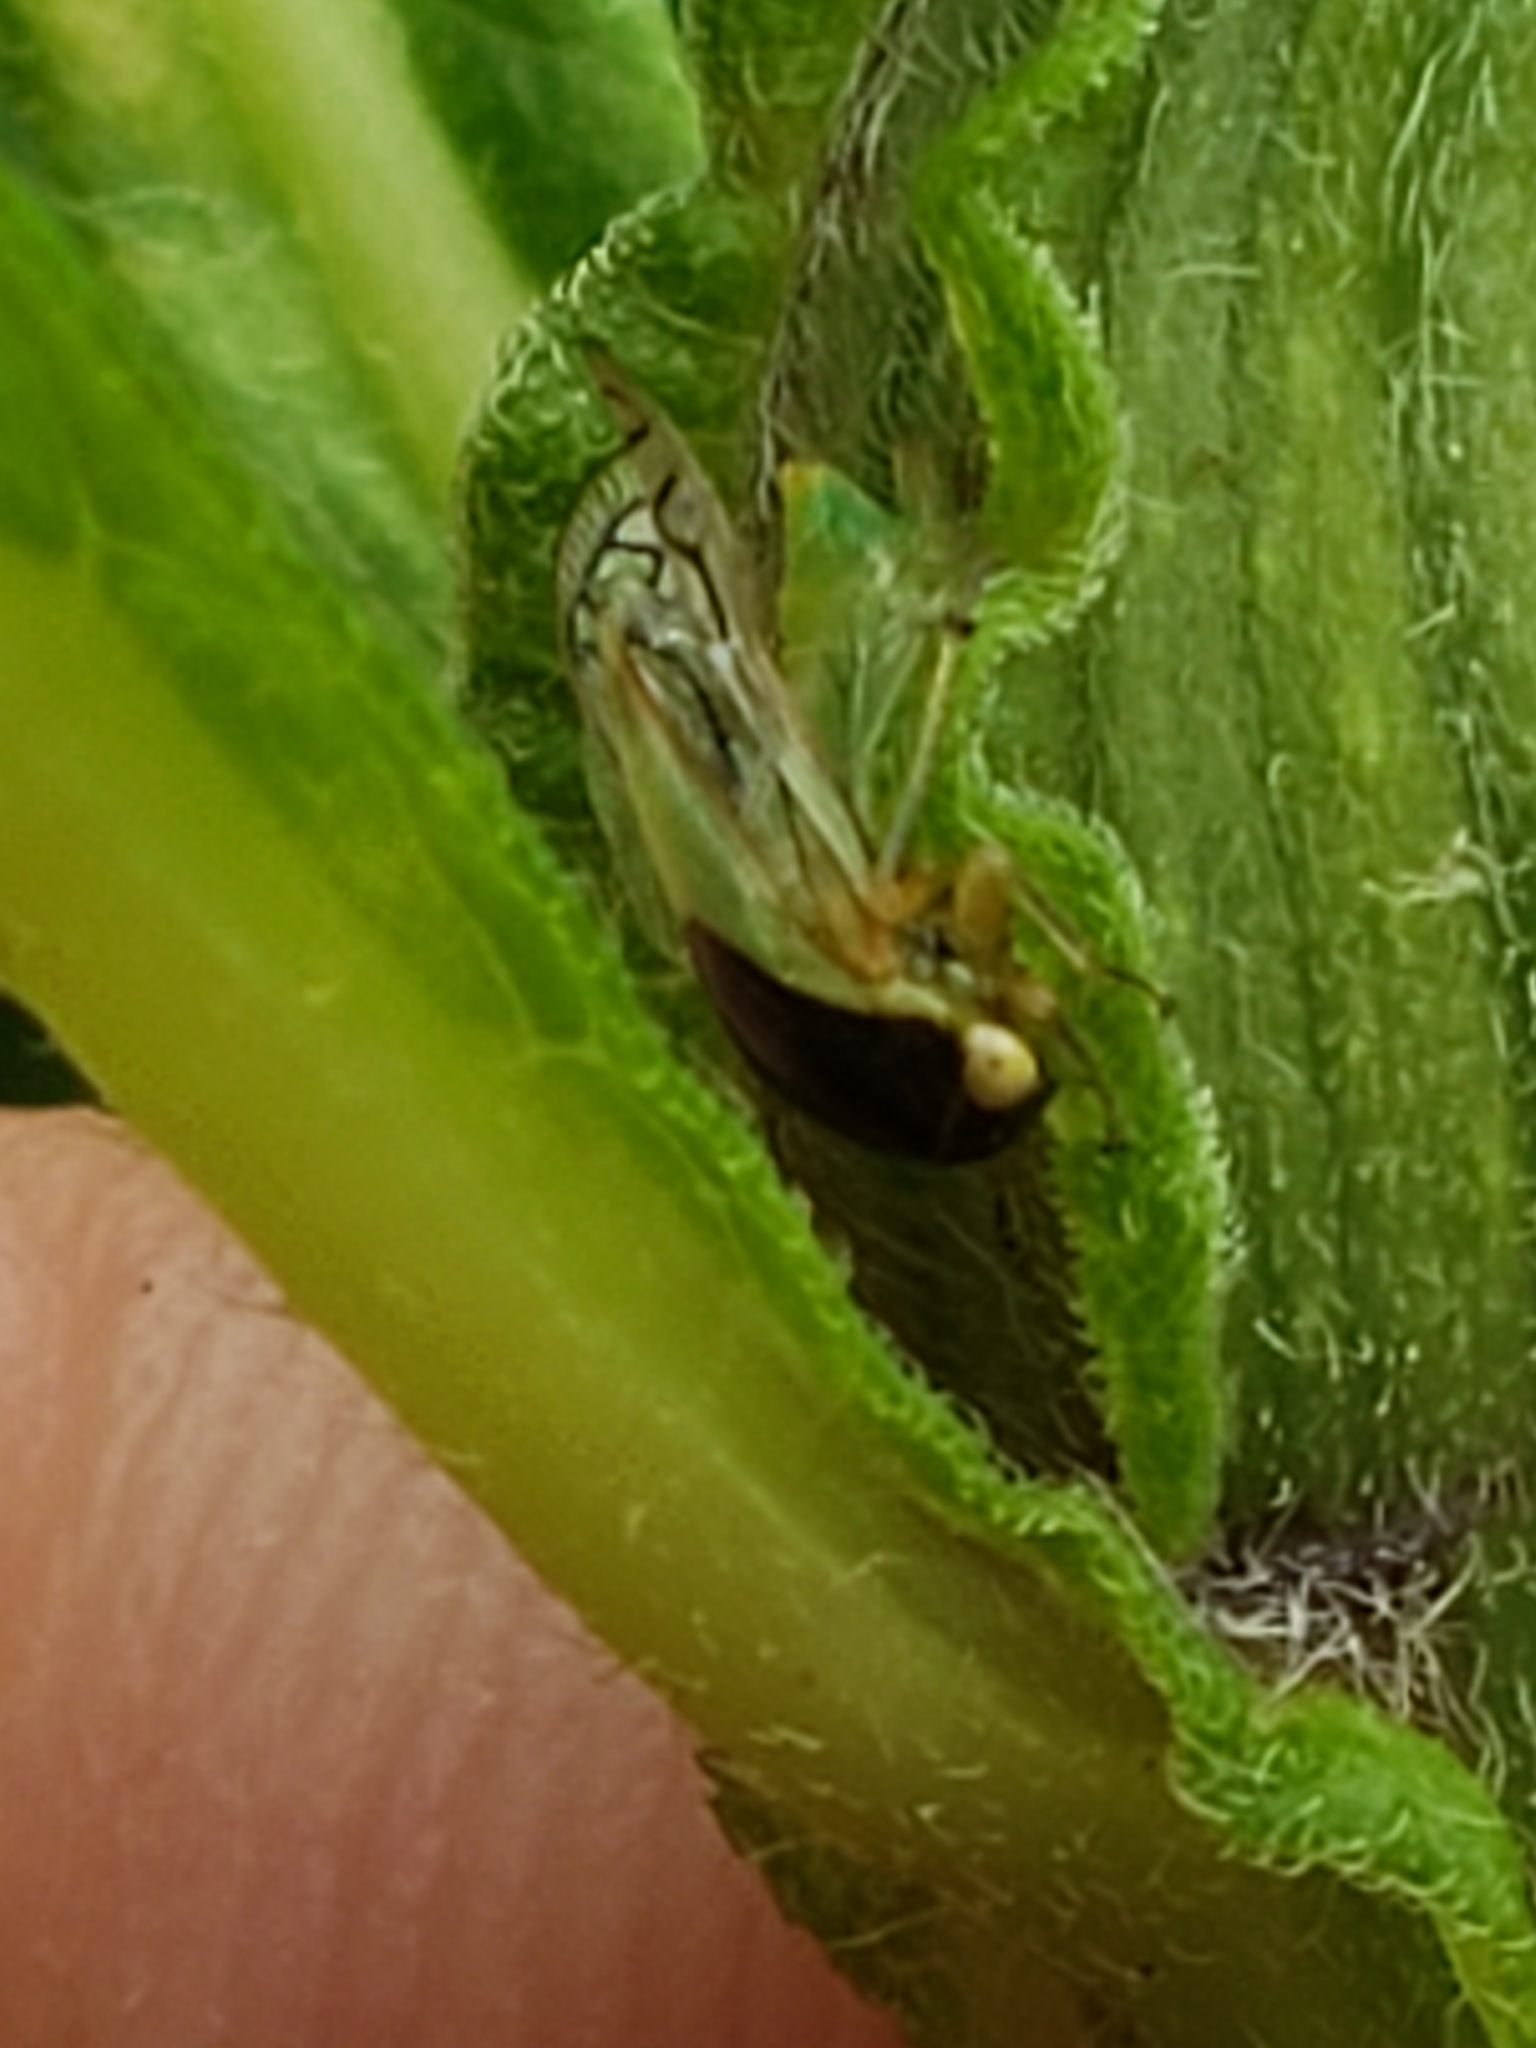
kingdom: Animalia
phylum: Arthropoda
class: Insecta
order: Hemiptera
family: Membracidae
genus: Acutalis
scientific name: Acutalis tartarea
